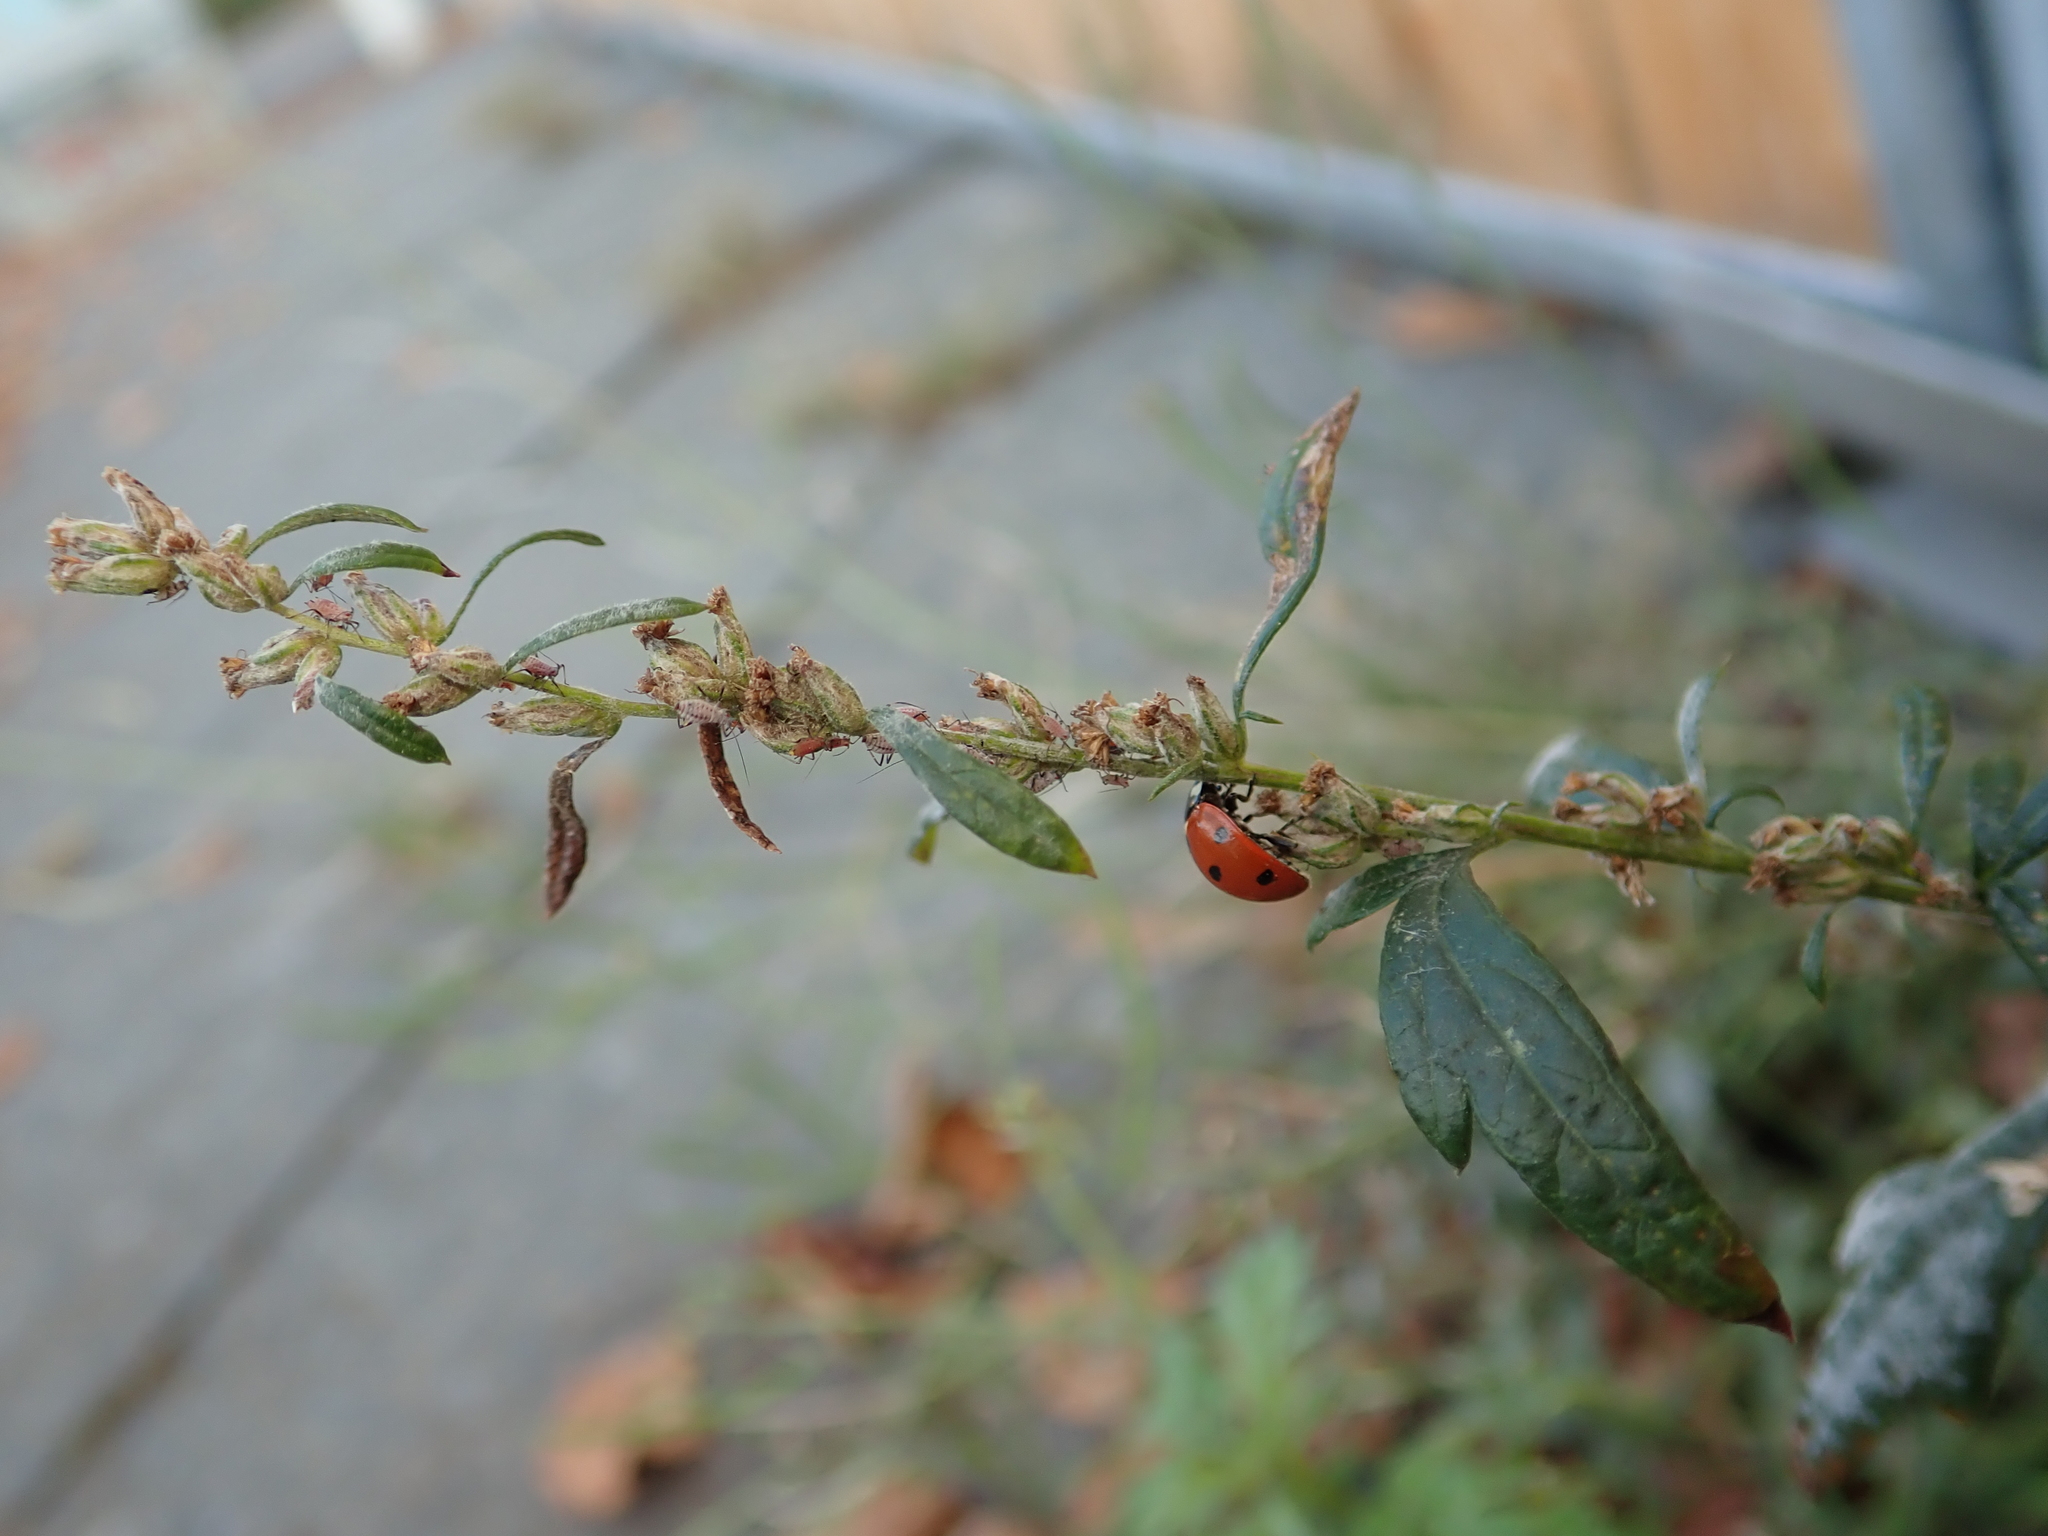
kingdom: Plantae
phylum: Tracheophyta
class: Magnoliopsida
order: Asterales
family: Asteraceae
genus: Artemisia
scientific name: Artemisia vulgaris
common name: Mugwort
